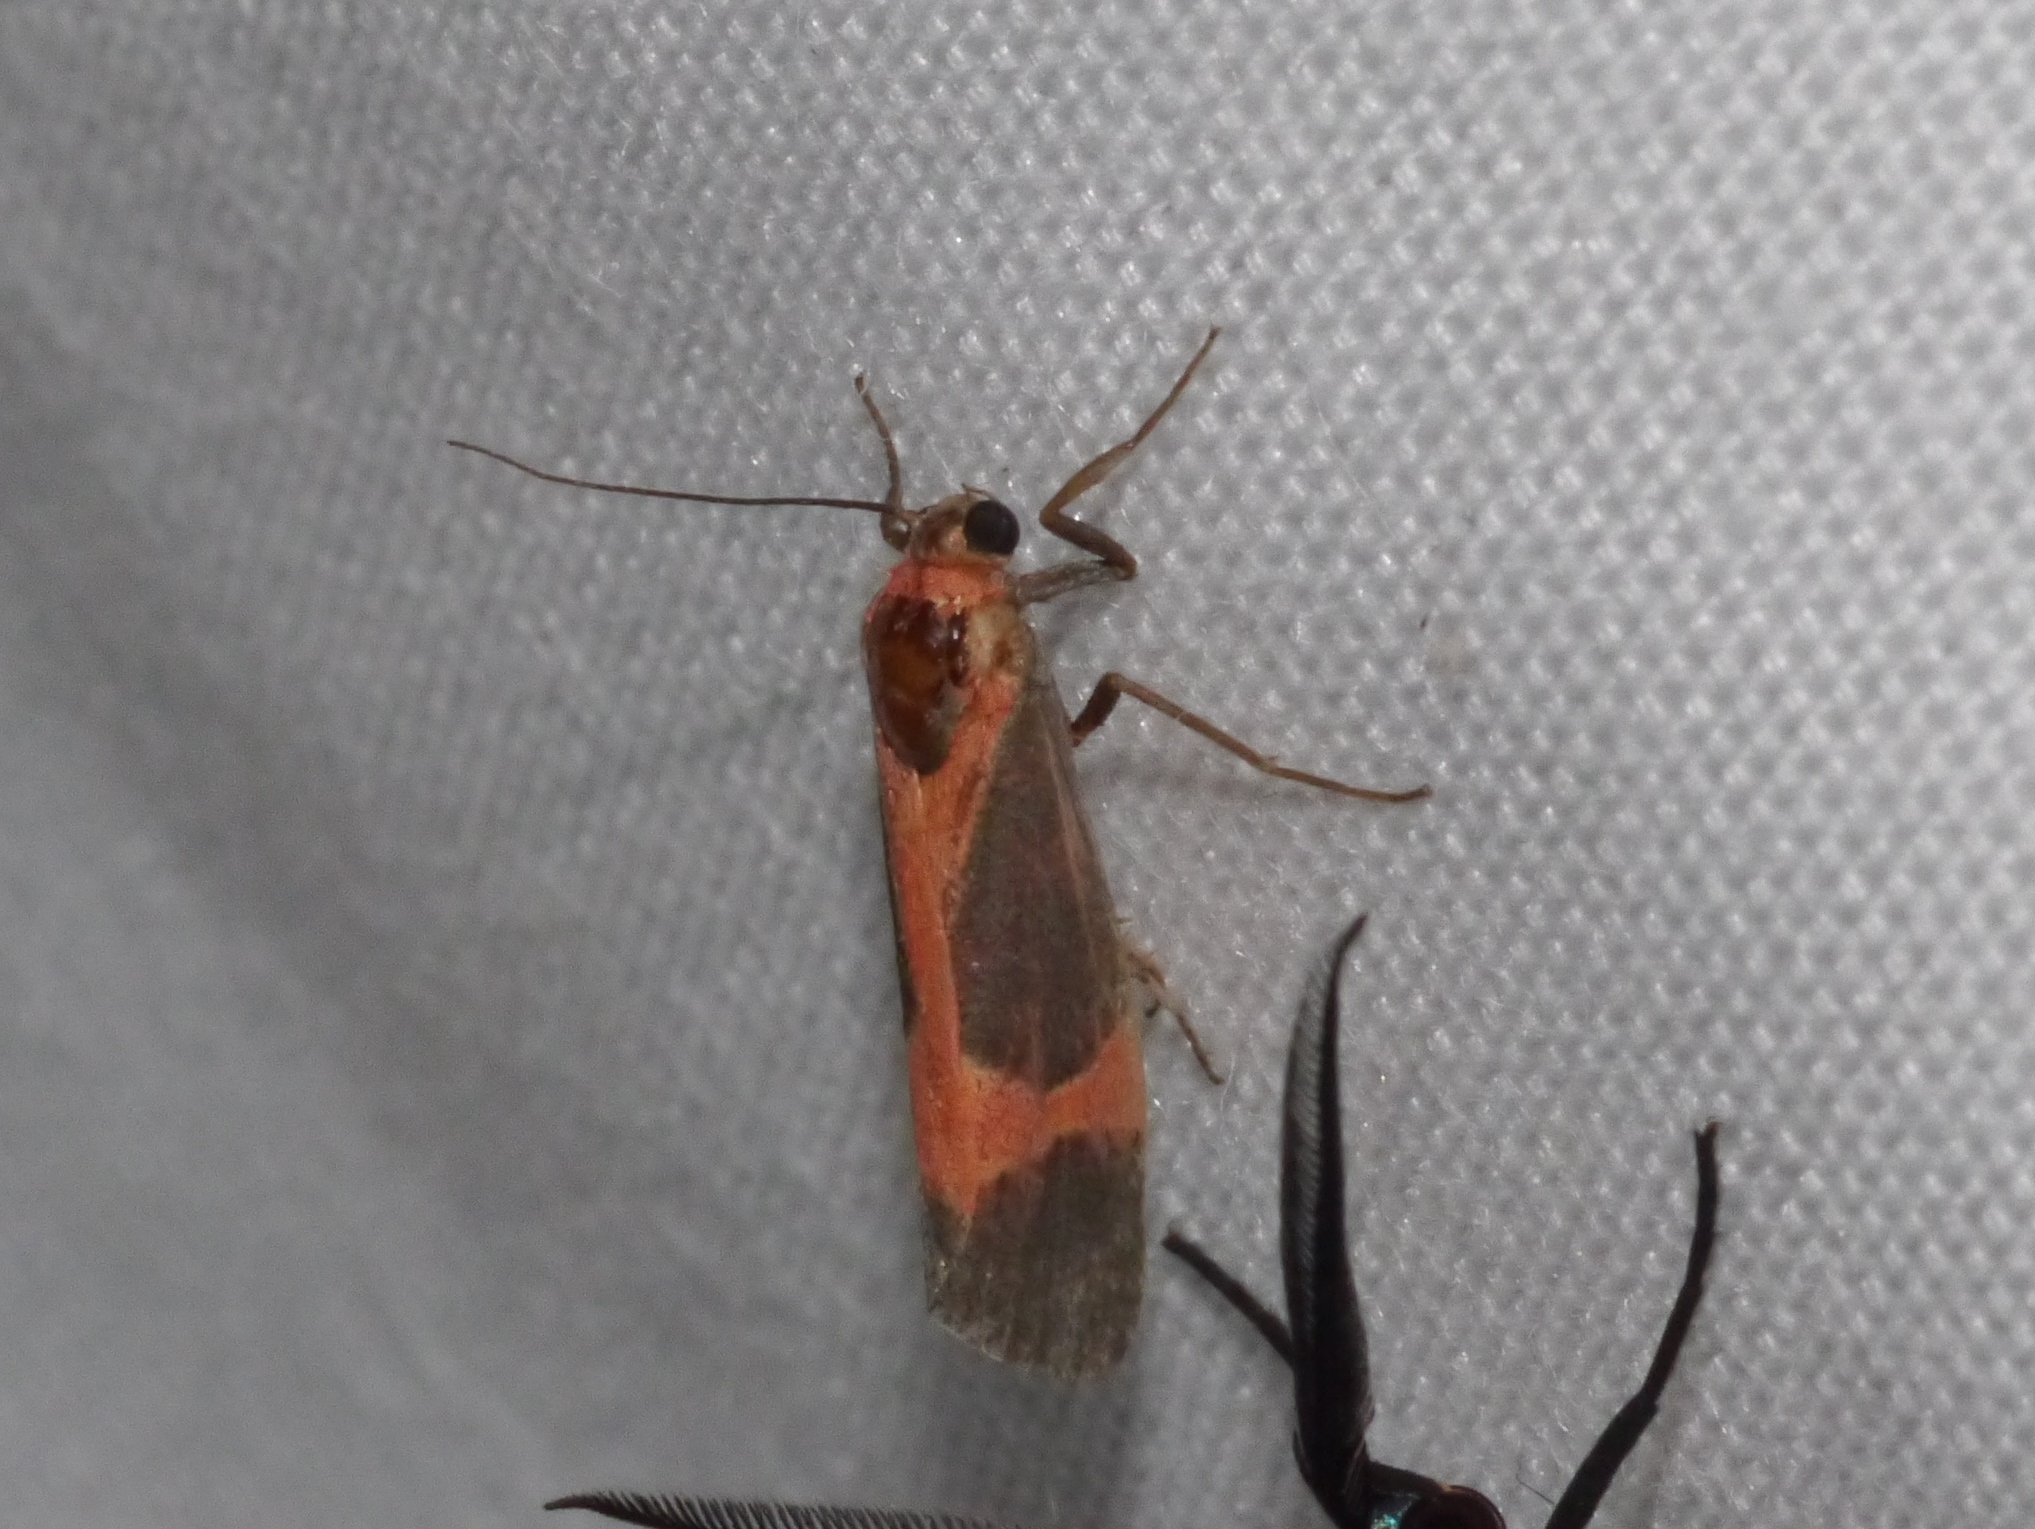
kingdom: Animalia
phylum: Arthropoda
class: Insecta
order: Lepidoptera
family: Erebidae
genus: Cisthene
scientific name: Cisthene martini
